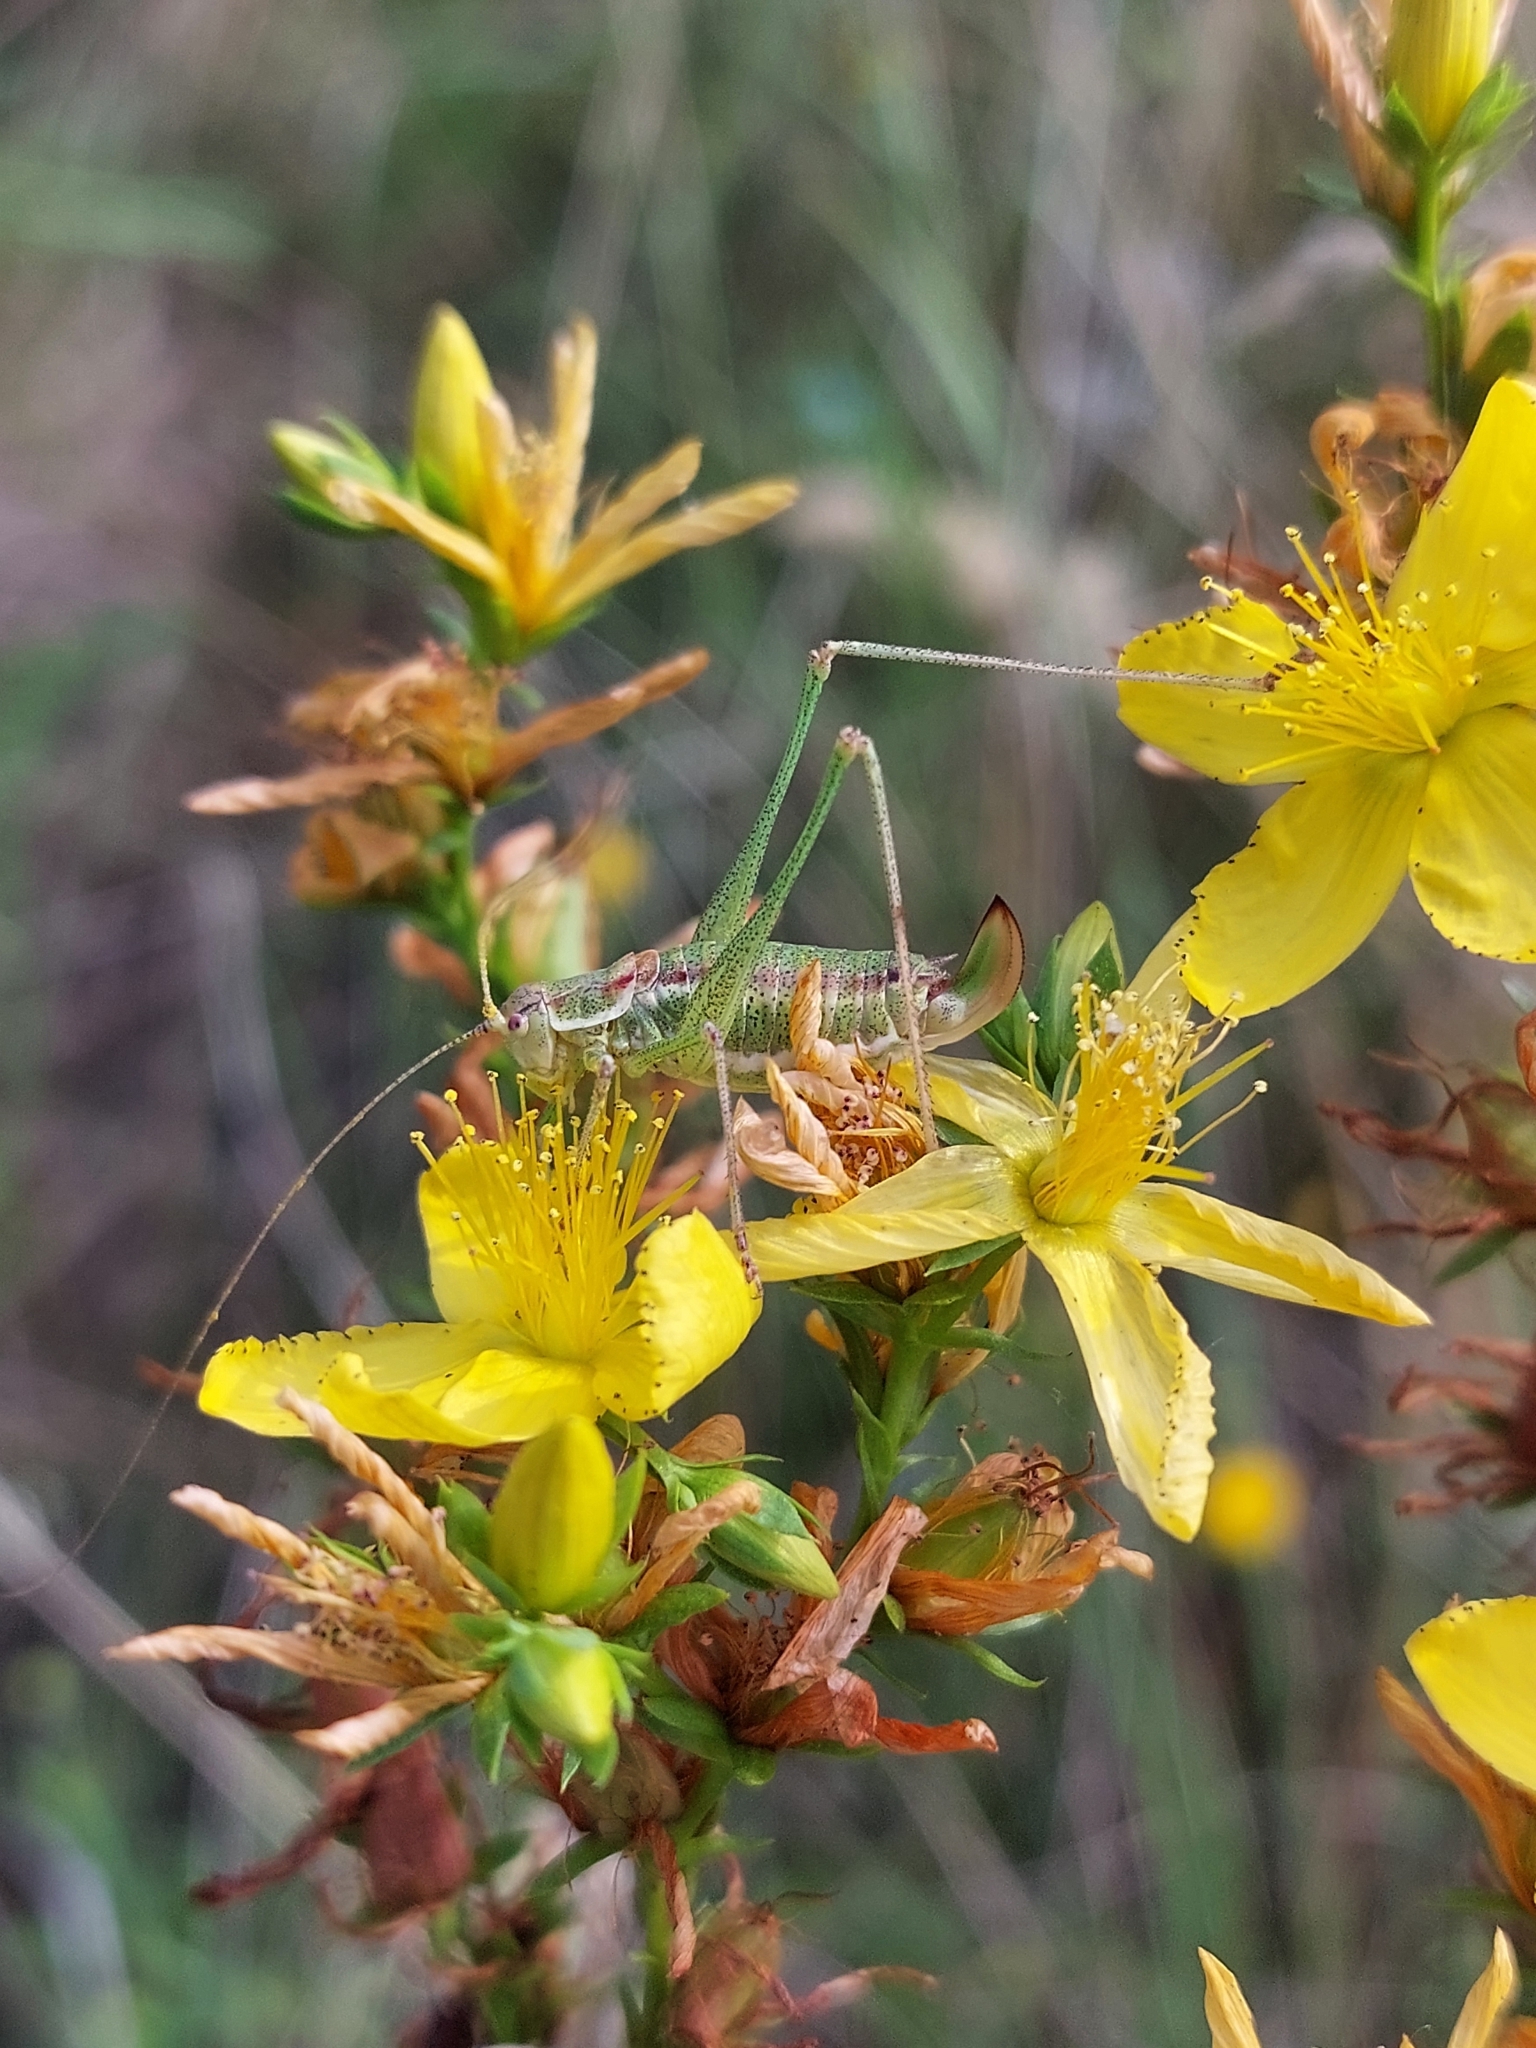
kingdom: Animalia
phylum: Arthropoda
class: Insecta
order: Orthoptera
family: Tettigoniidae
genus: Leptophyes
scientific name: Leptophyes albovittata
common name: Striped bush-cricket
